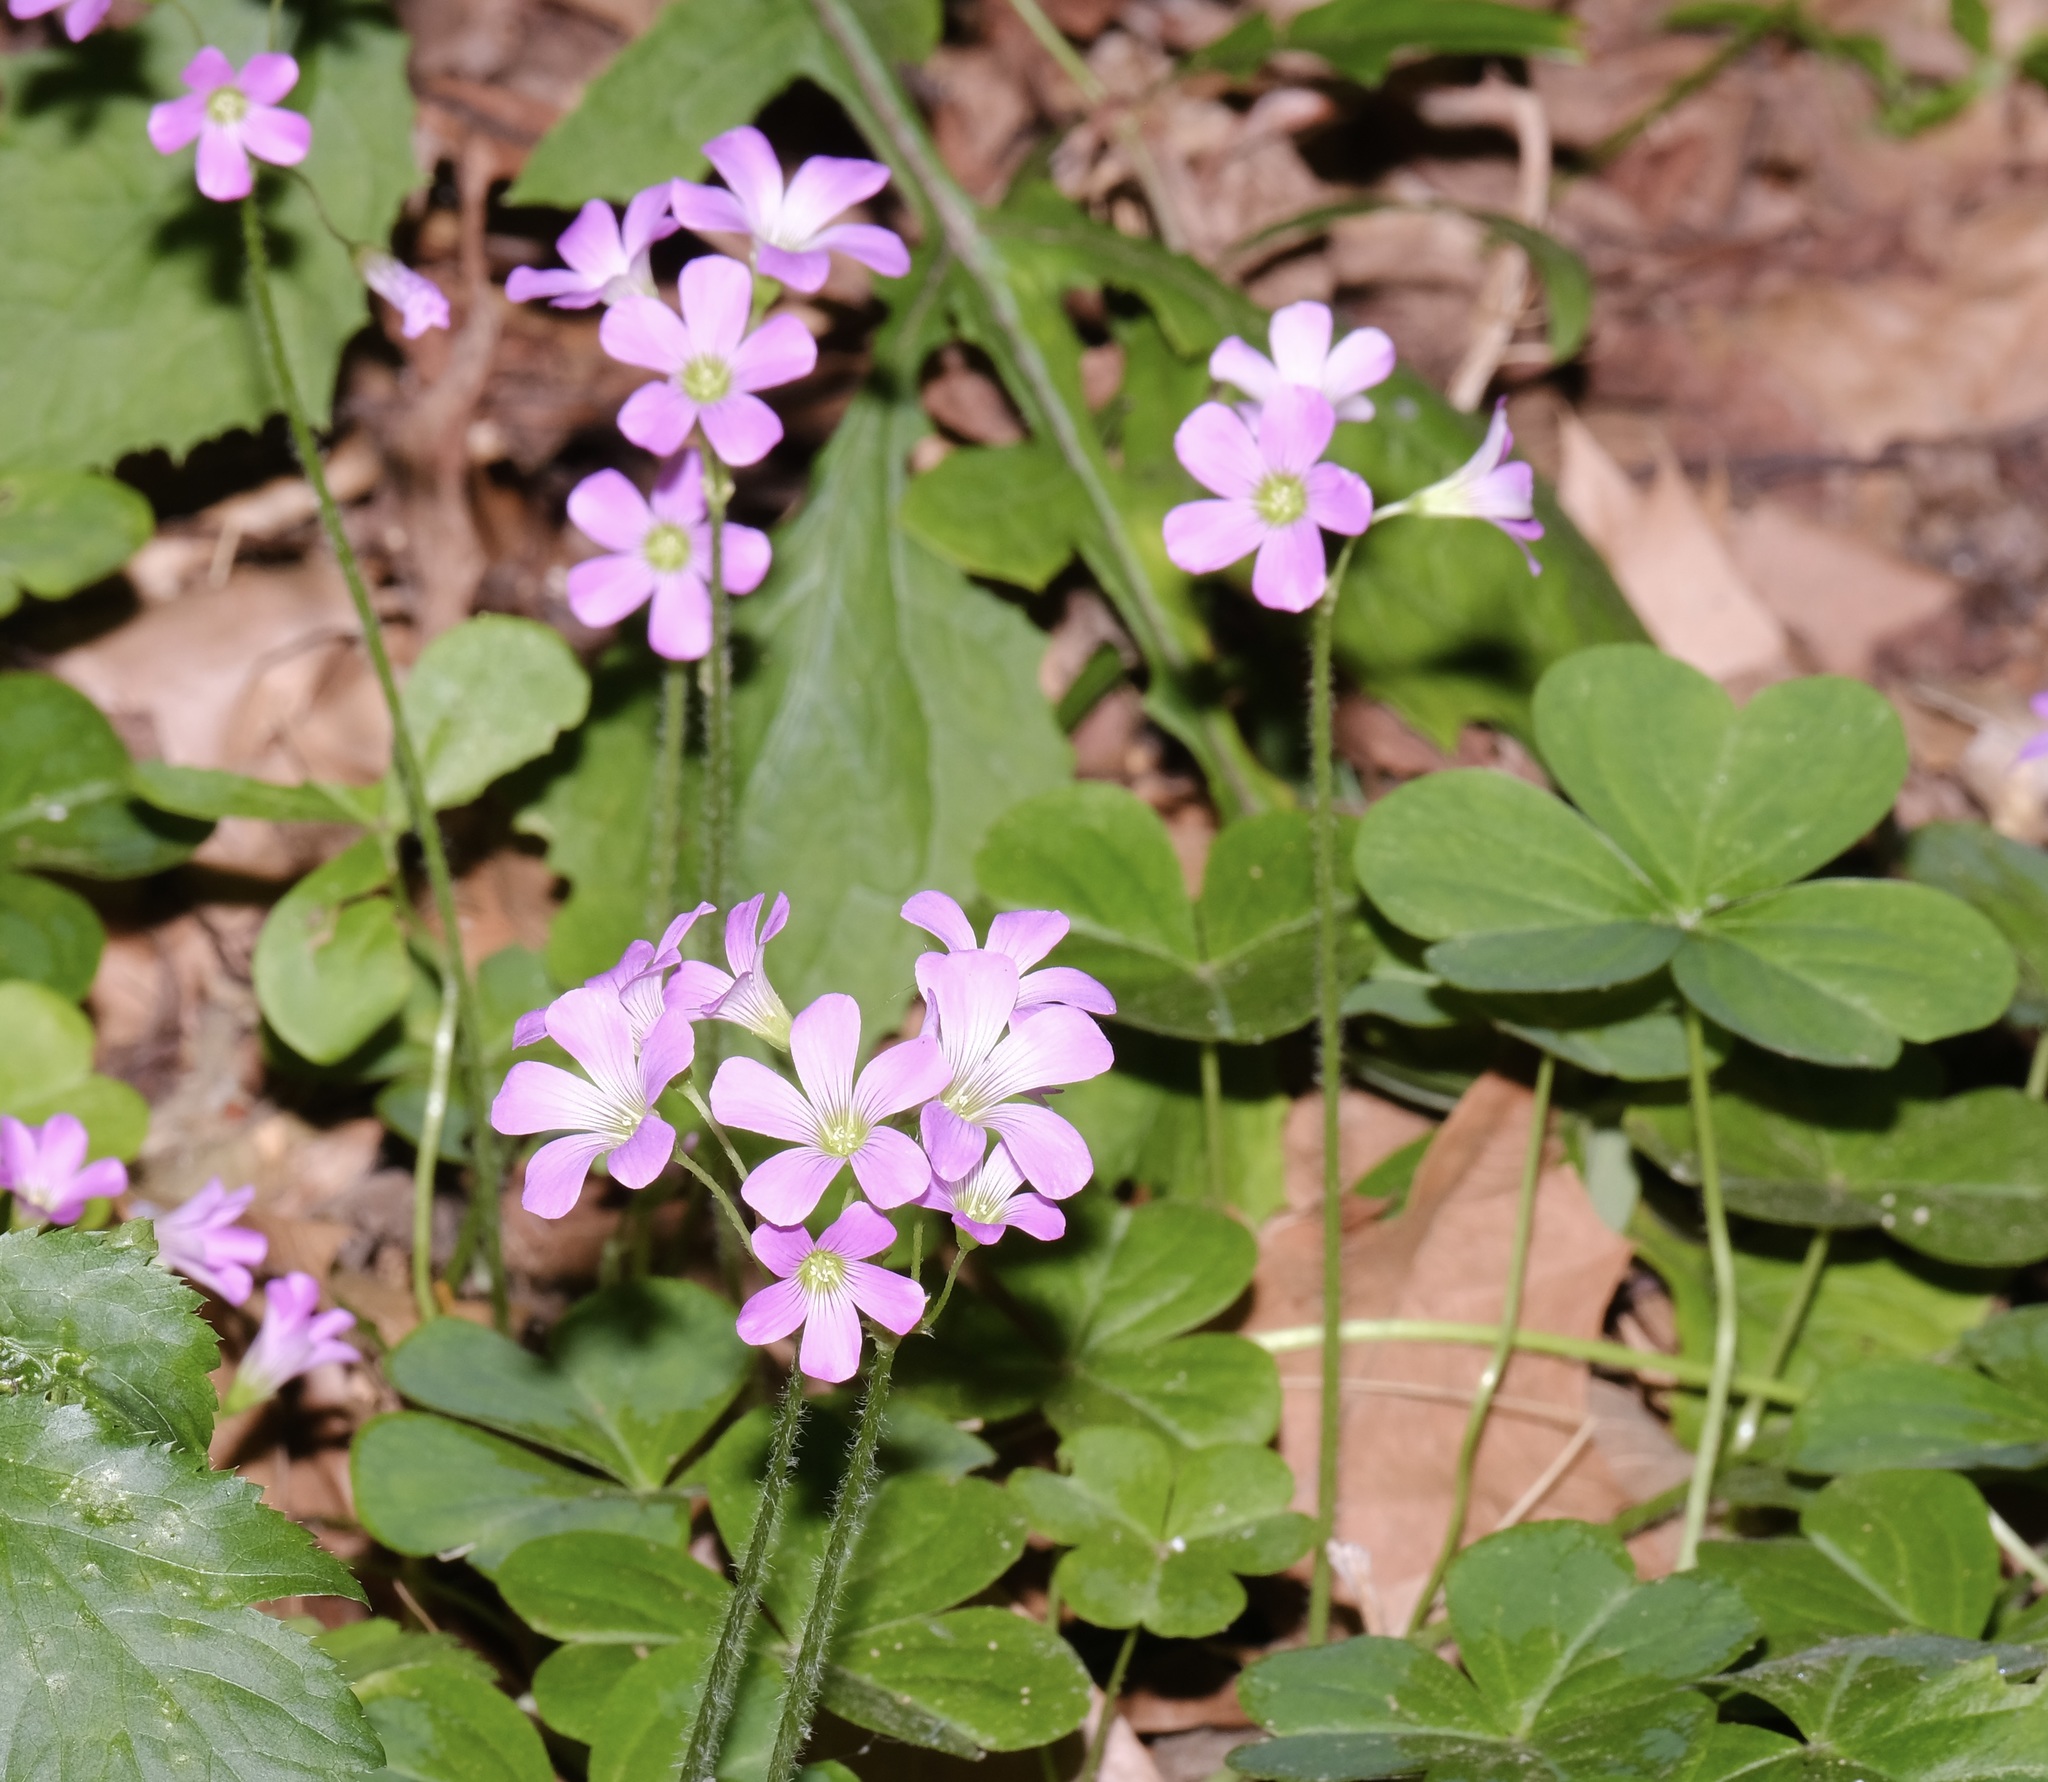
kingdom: Plantae
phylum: Tracheophyta
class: Magnoliopsida
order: Oxalidales
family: Oxalidaceae
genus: Oxalis
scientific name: Oxalis debilis
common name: Large-flowered pink-sorrel
